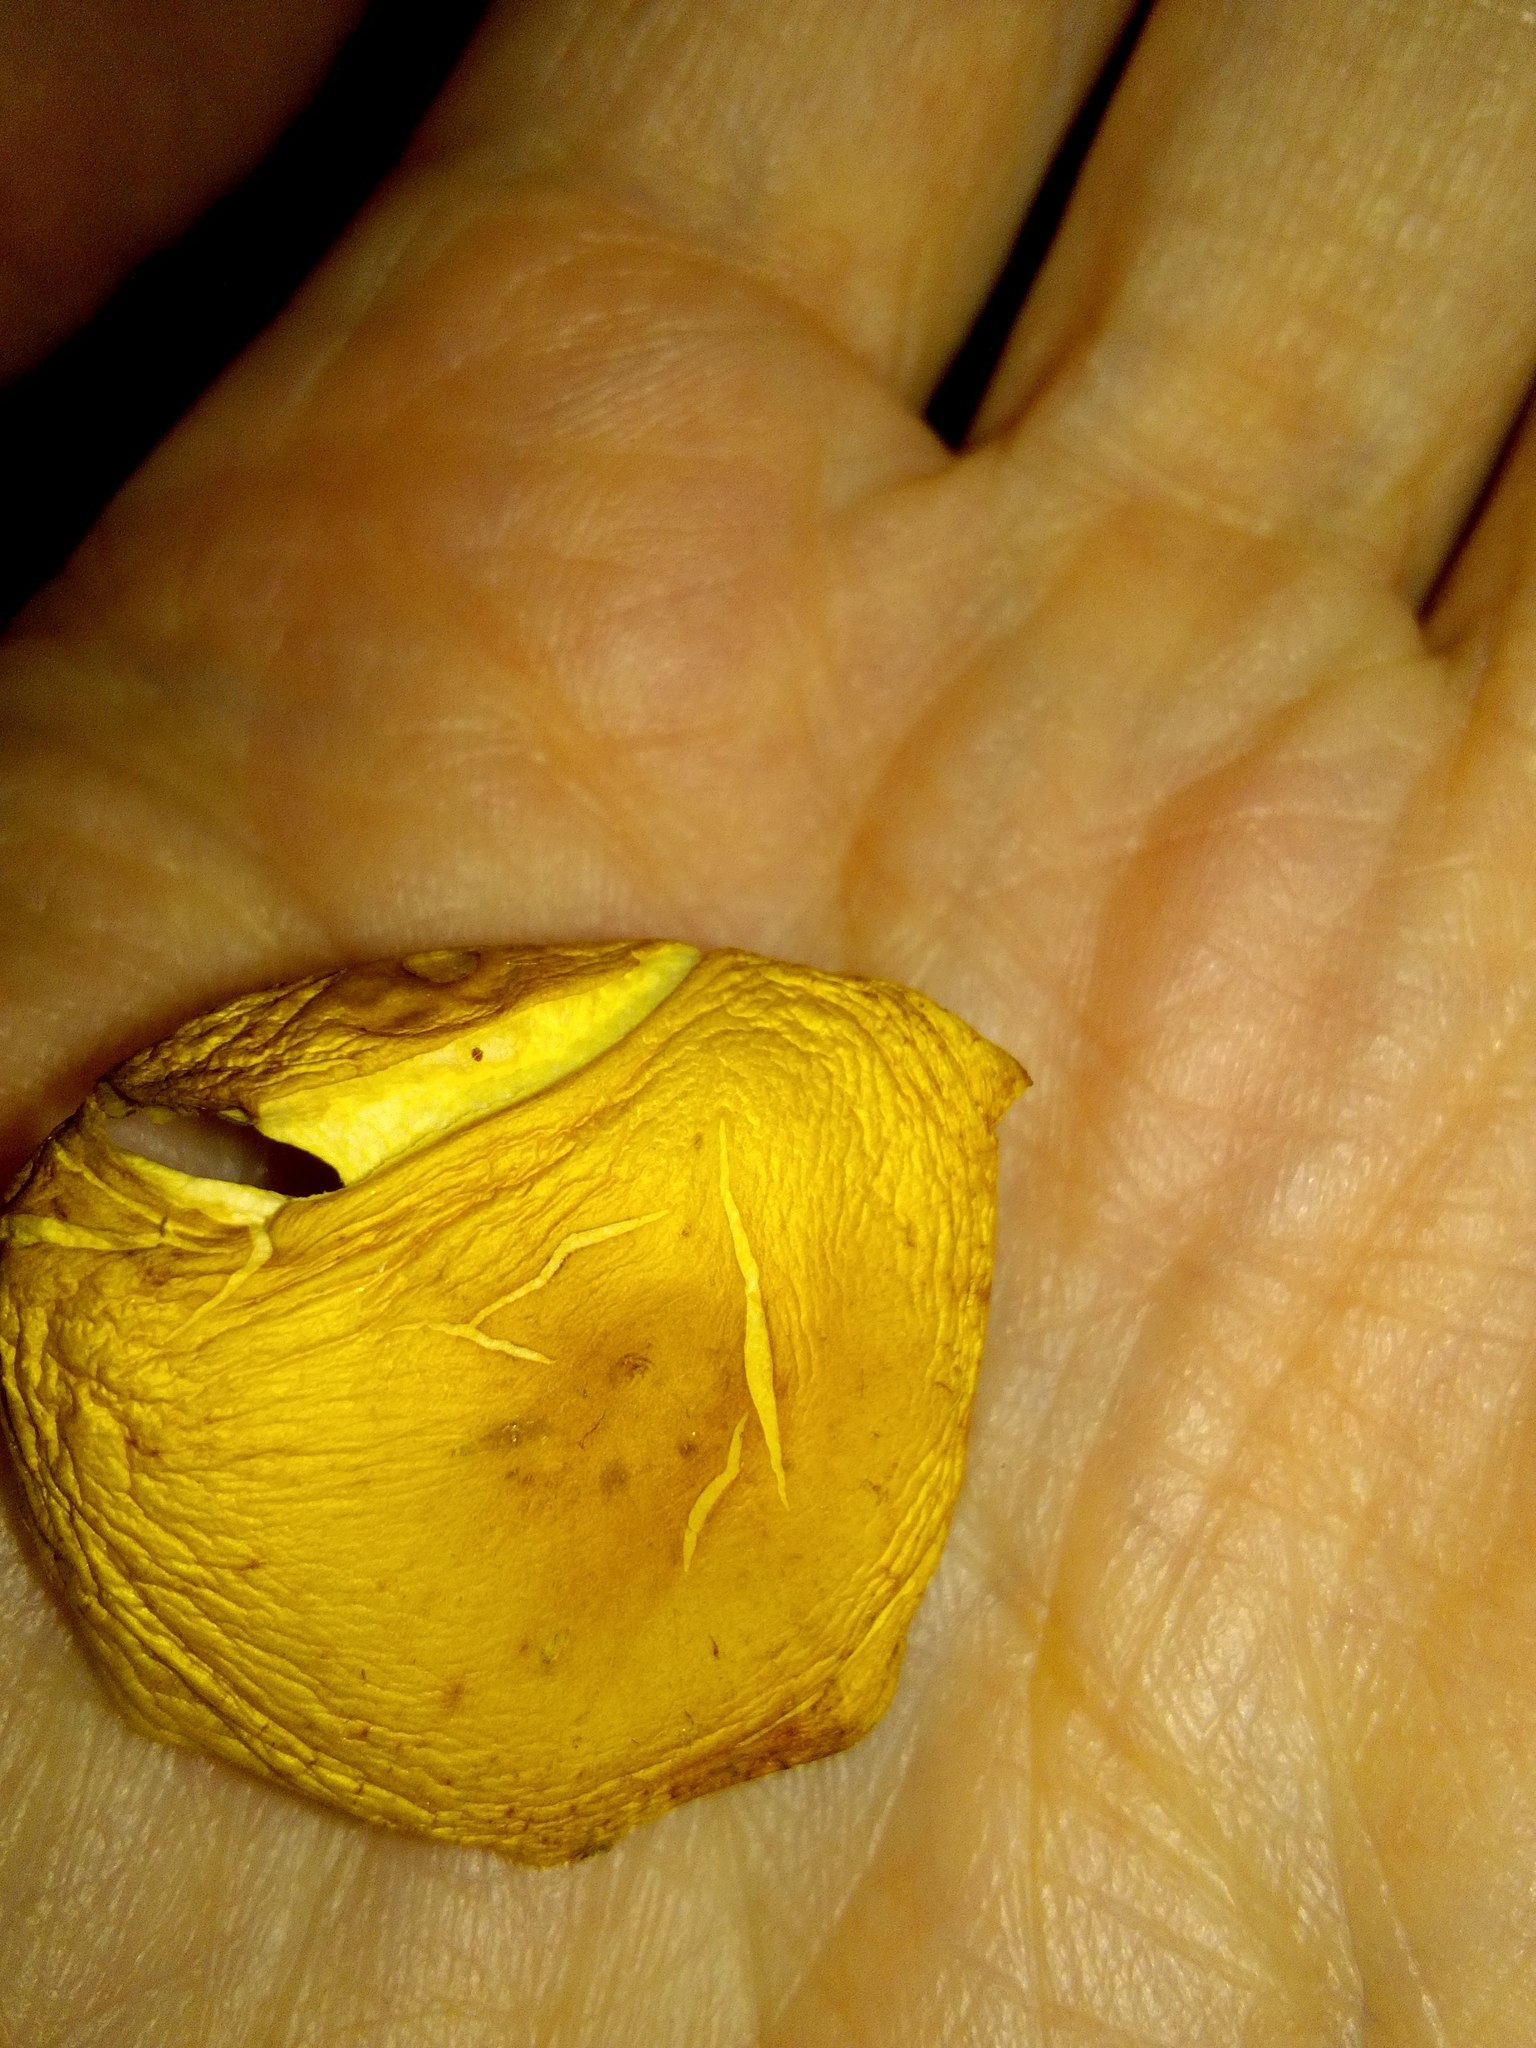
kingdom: Fungi
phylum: Basidiomycota
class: Agaricomycetes
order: Agaricales
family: Strophariaceae
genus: Hypholoma
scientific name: Hypholoma radicosum
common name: Rooting brownie
